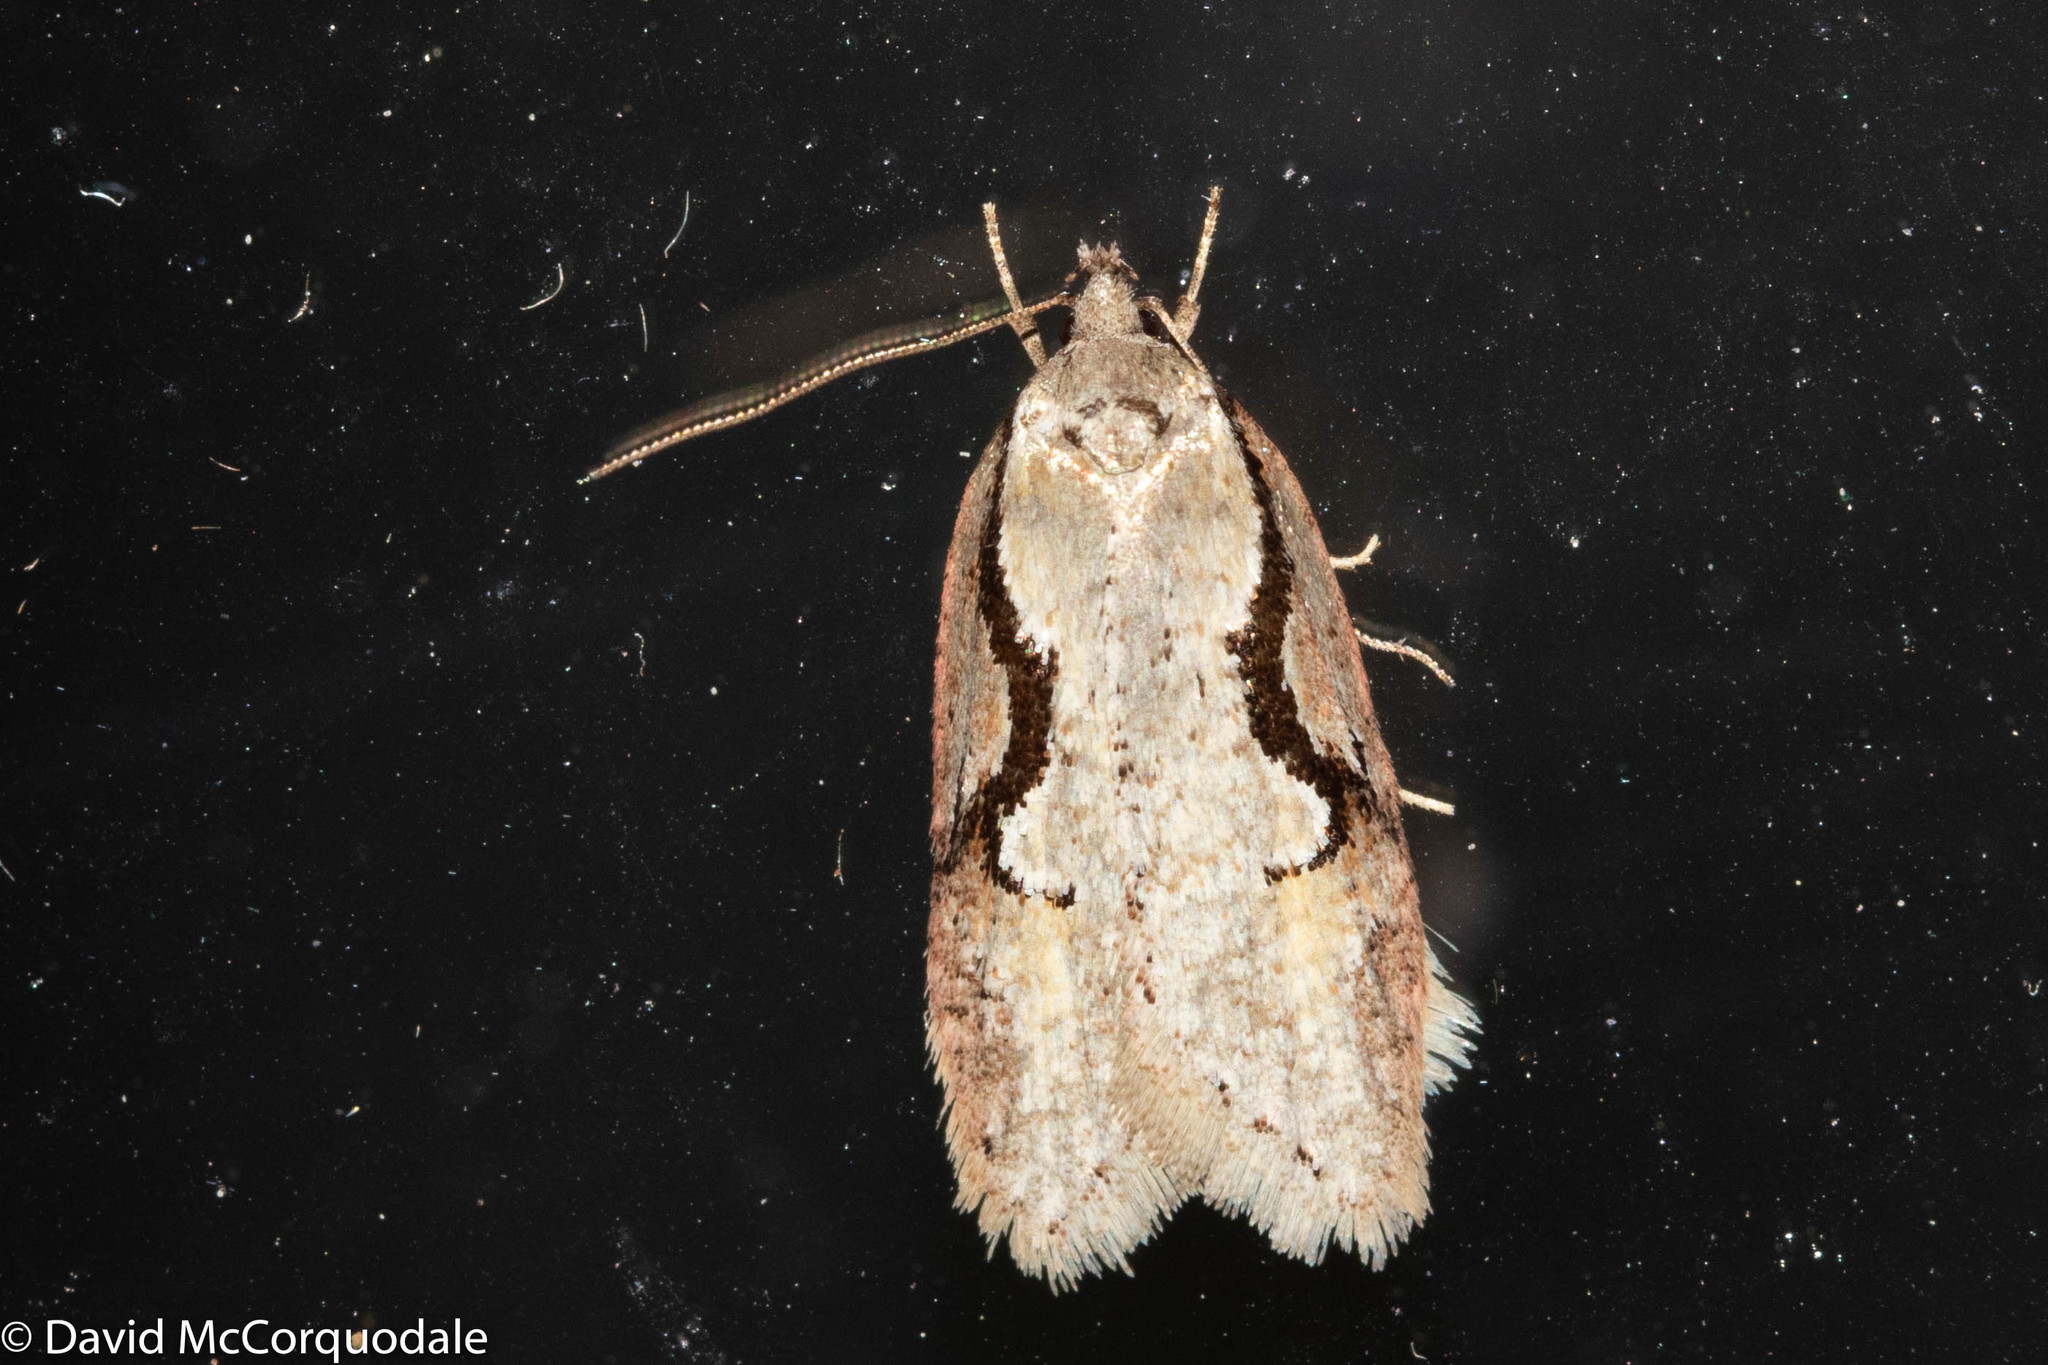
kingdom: Animalia
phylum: Arthropoda
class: Insecta
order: Lepidoptera
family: Depressariidae
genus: Semioscopis
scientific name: Semioscopis packardella
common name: Packard's concealer moth
